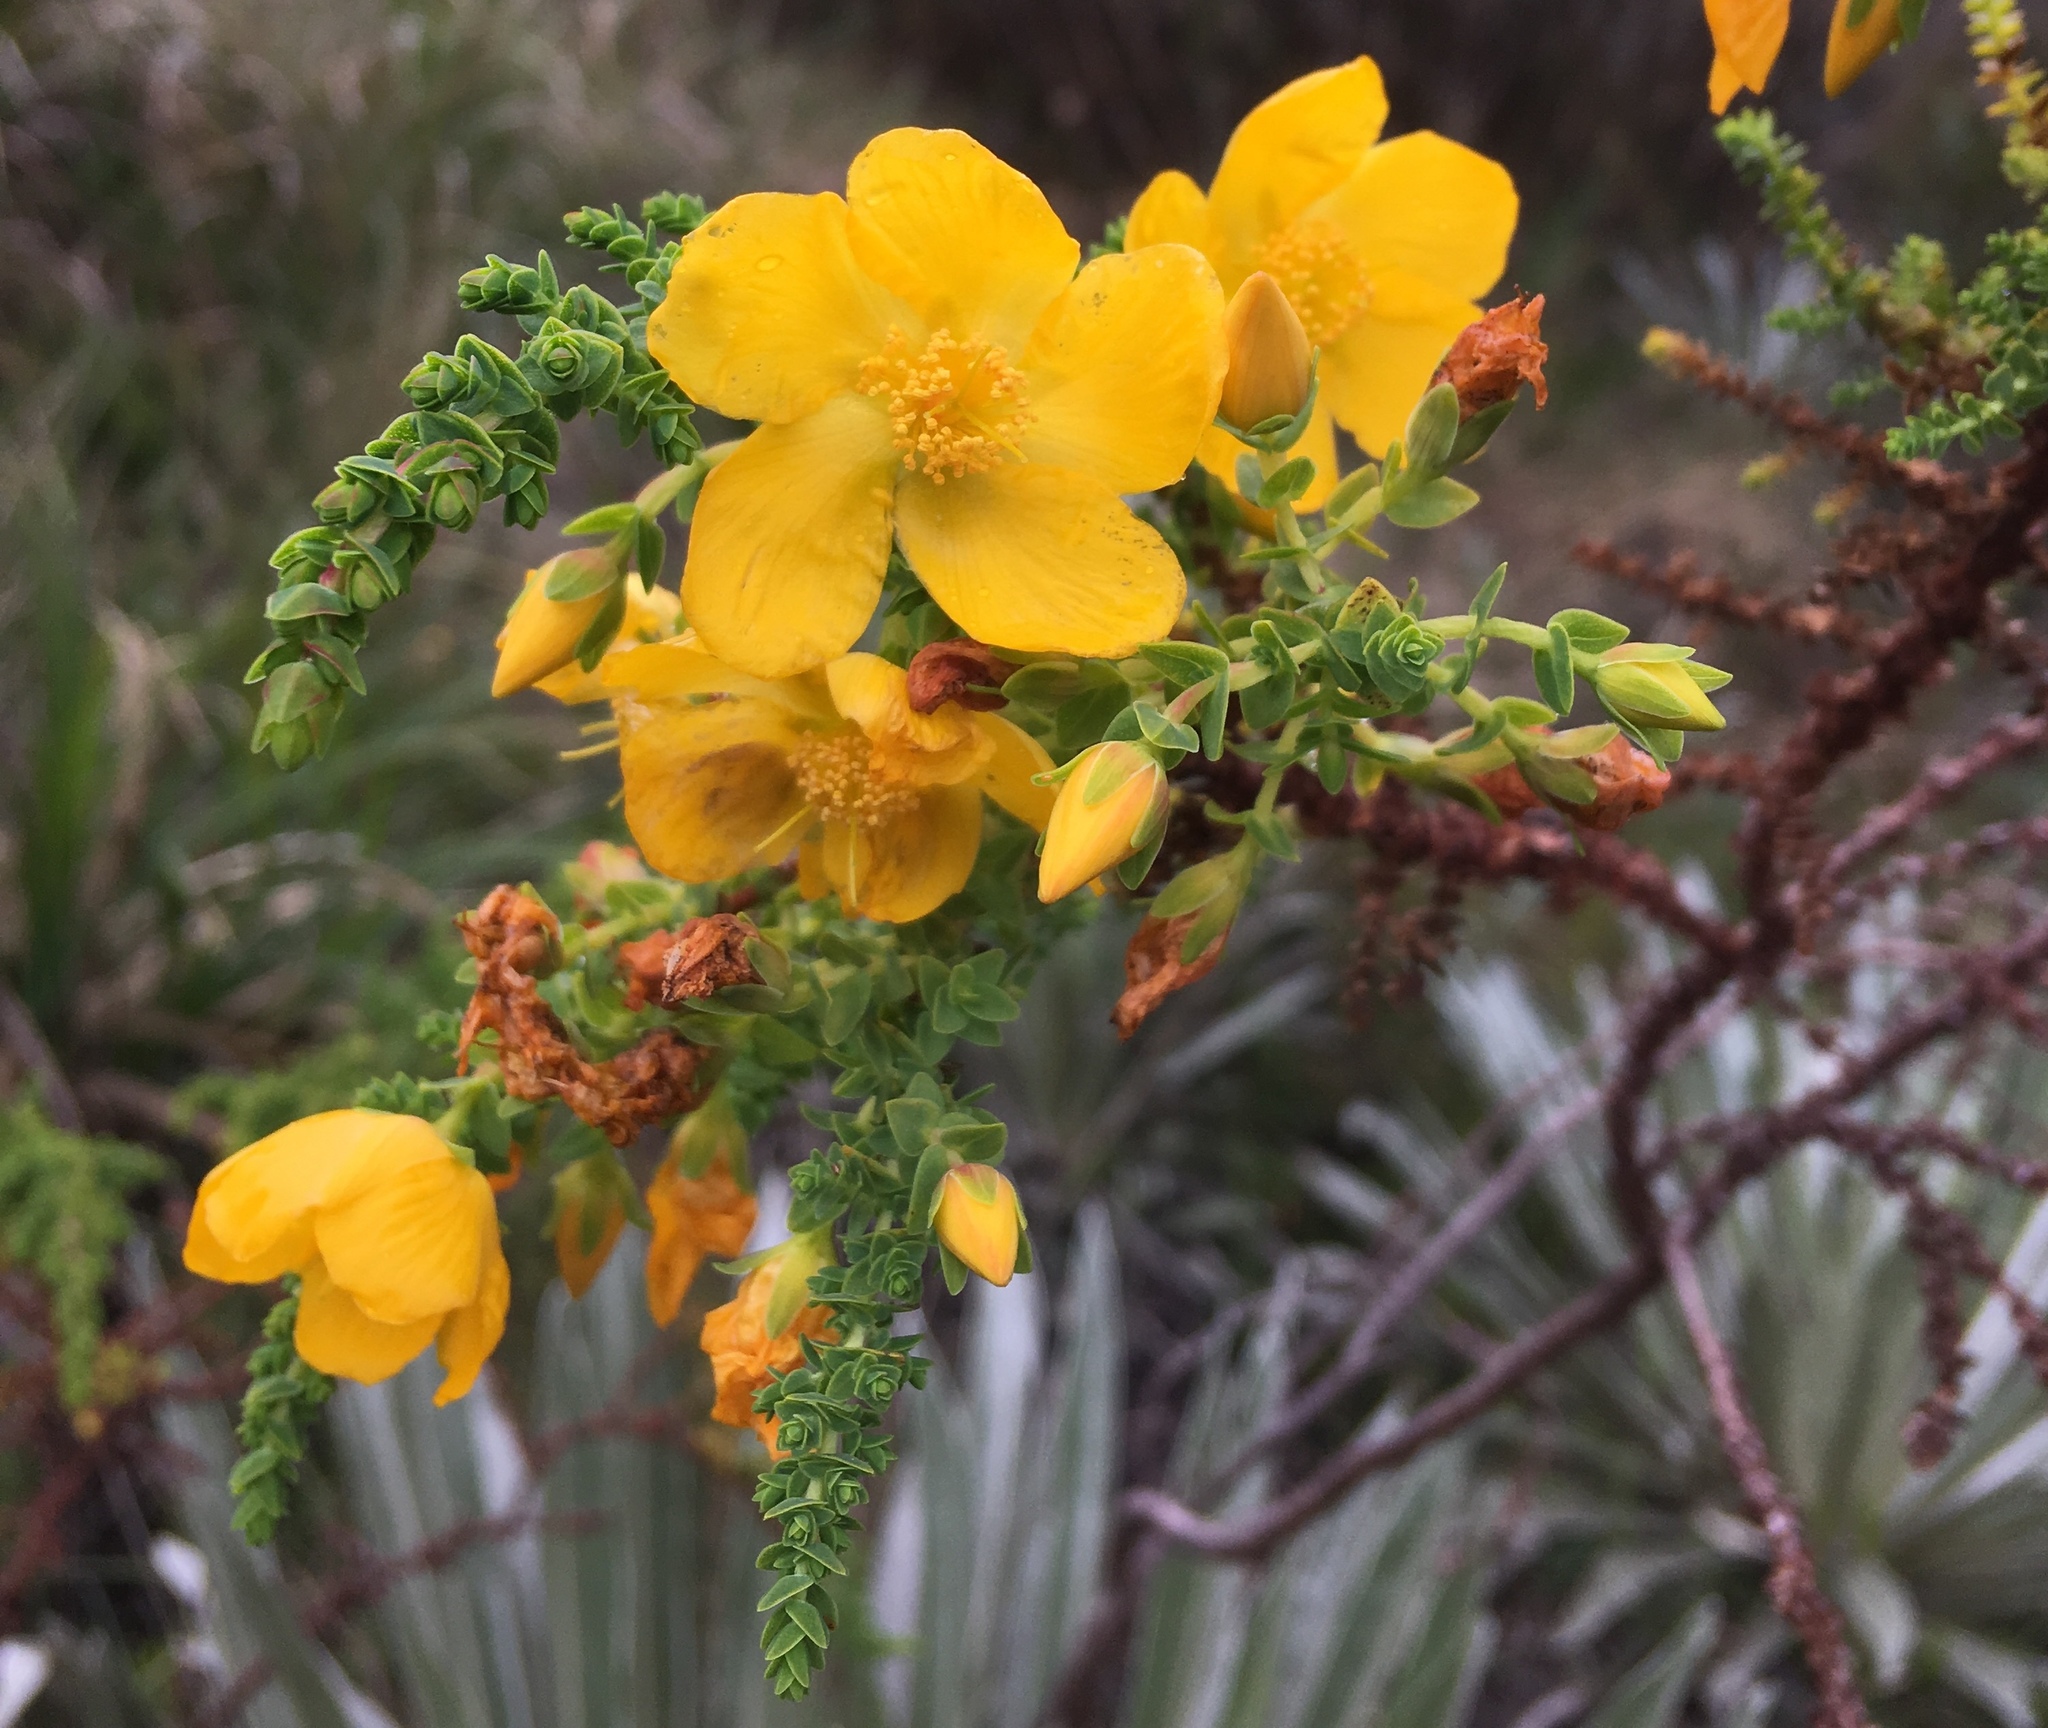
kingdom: Plantae
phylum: Tracheophyta
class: Magnoliopsida
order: Malpighiales
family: Hypericaceae
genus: Hypericum
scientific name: Hypericum goyanesii
